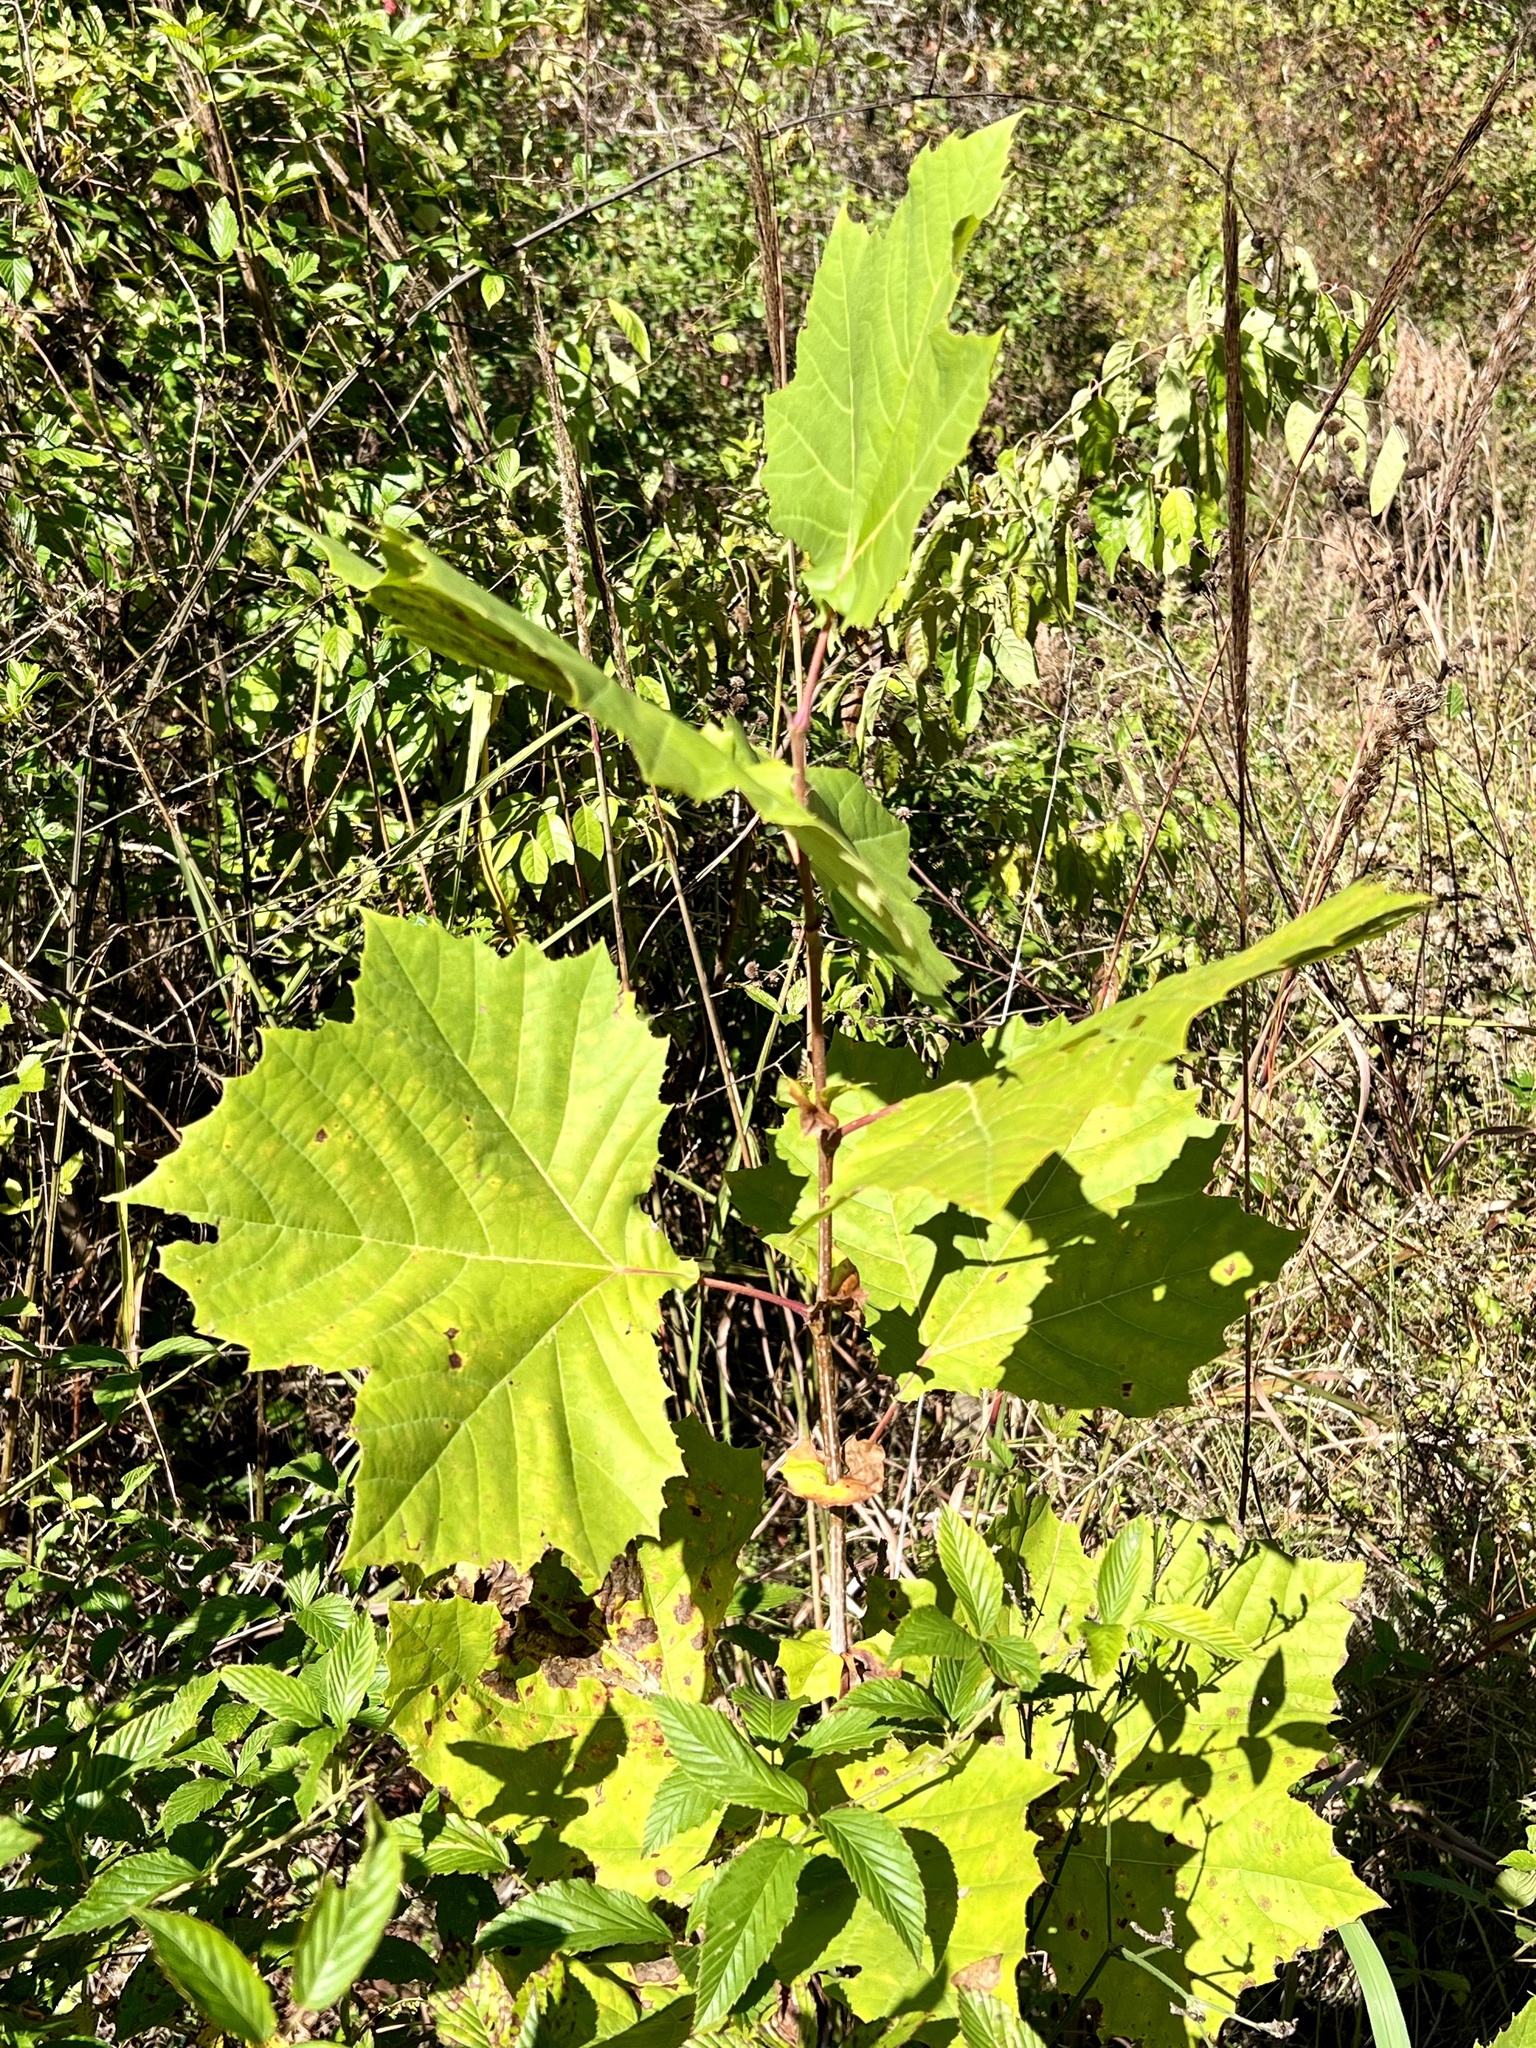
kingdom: Plantae
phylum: Tracheophyta
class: Magnoliopsida
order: Proteales
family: Platanaceae
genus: Platanus
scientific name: Platanus occidentalis
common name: American sycamore
